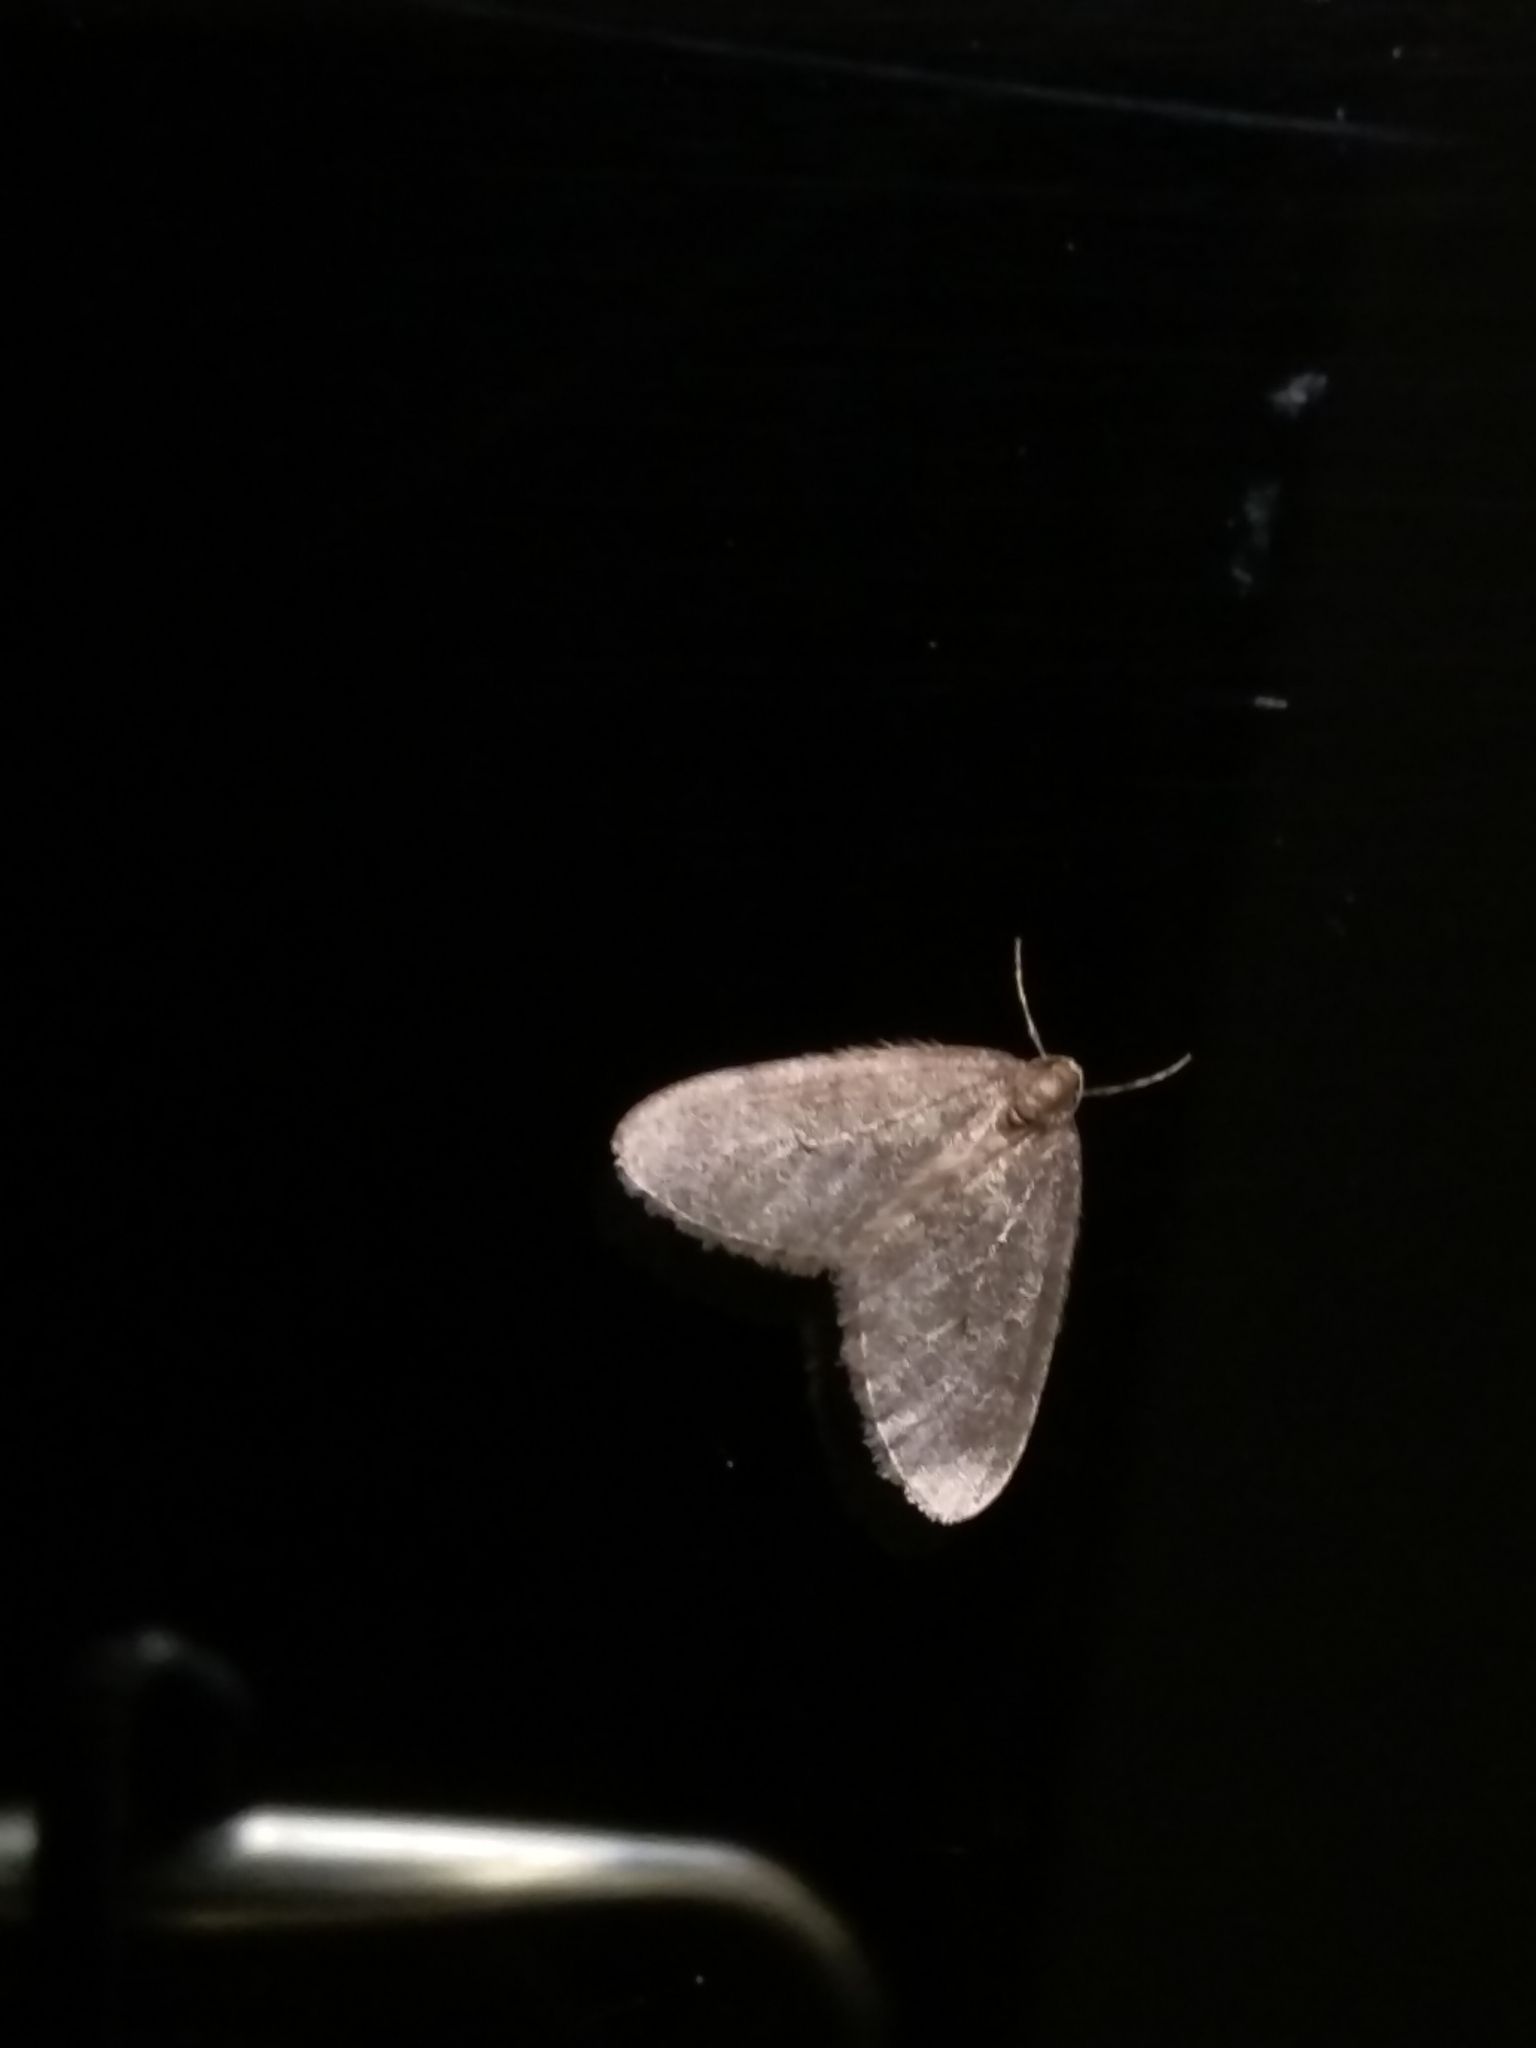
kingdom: Animalia
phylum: Arthropoda
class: Insecta
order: Lepidoptera
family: Geometridae
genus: Operophtera
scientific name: Operophtera brumata
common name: Winter moth
